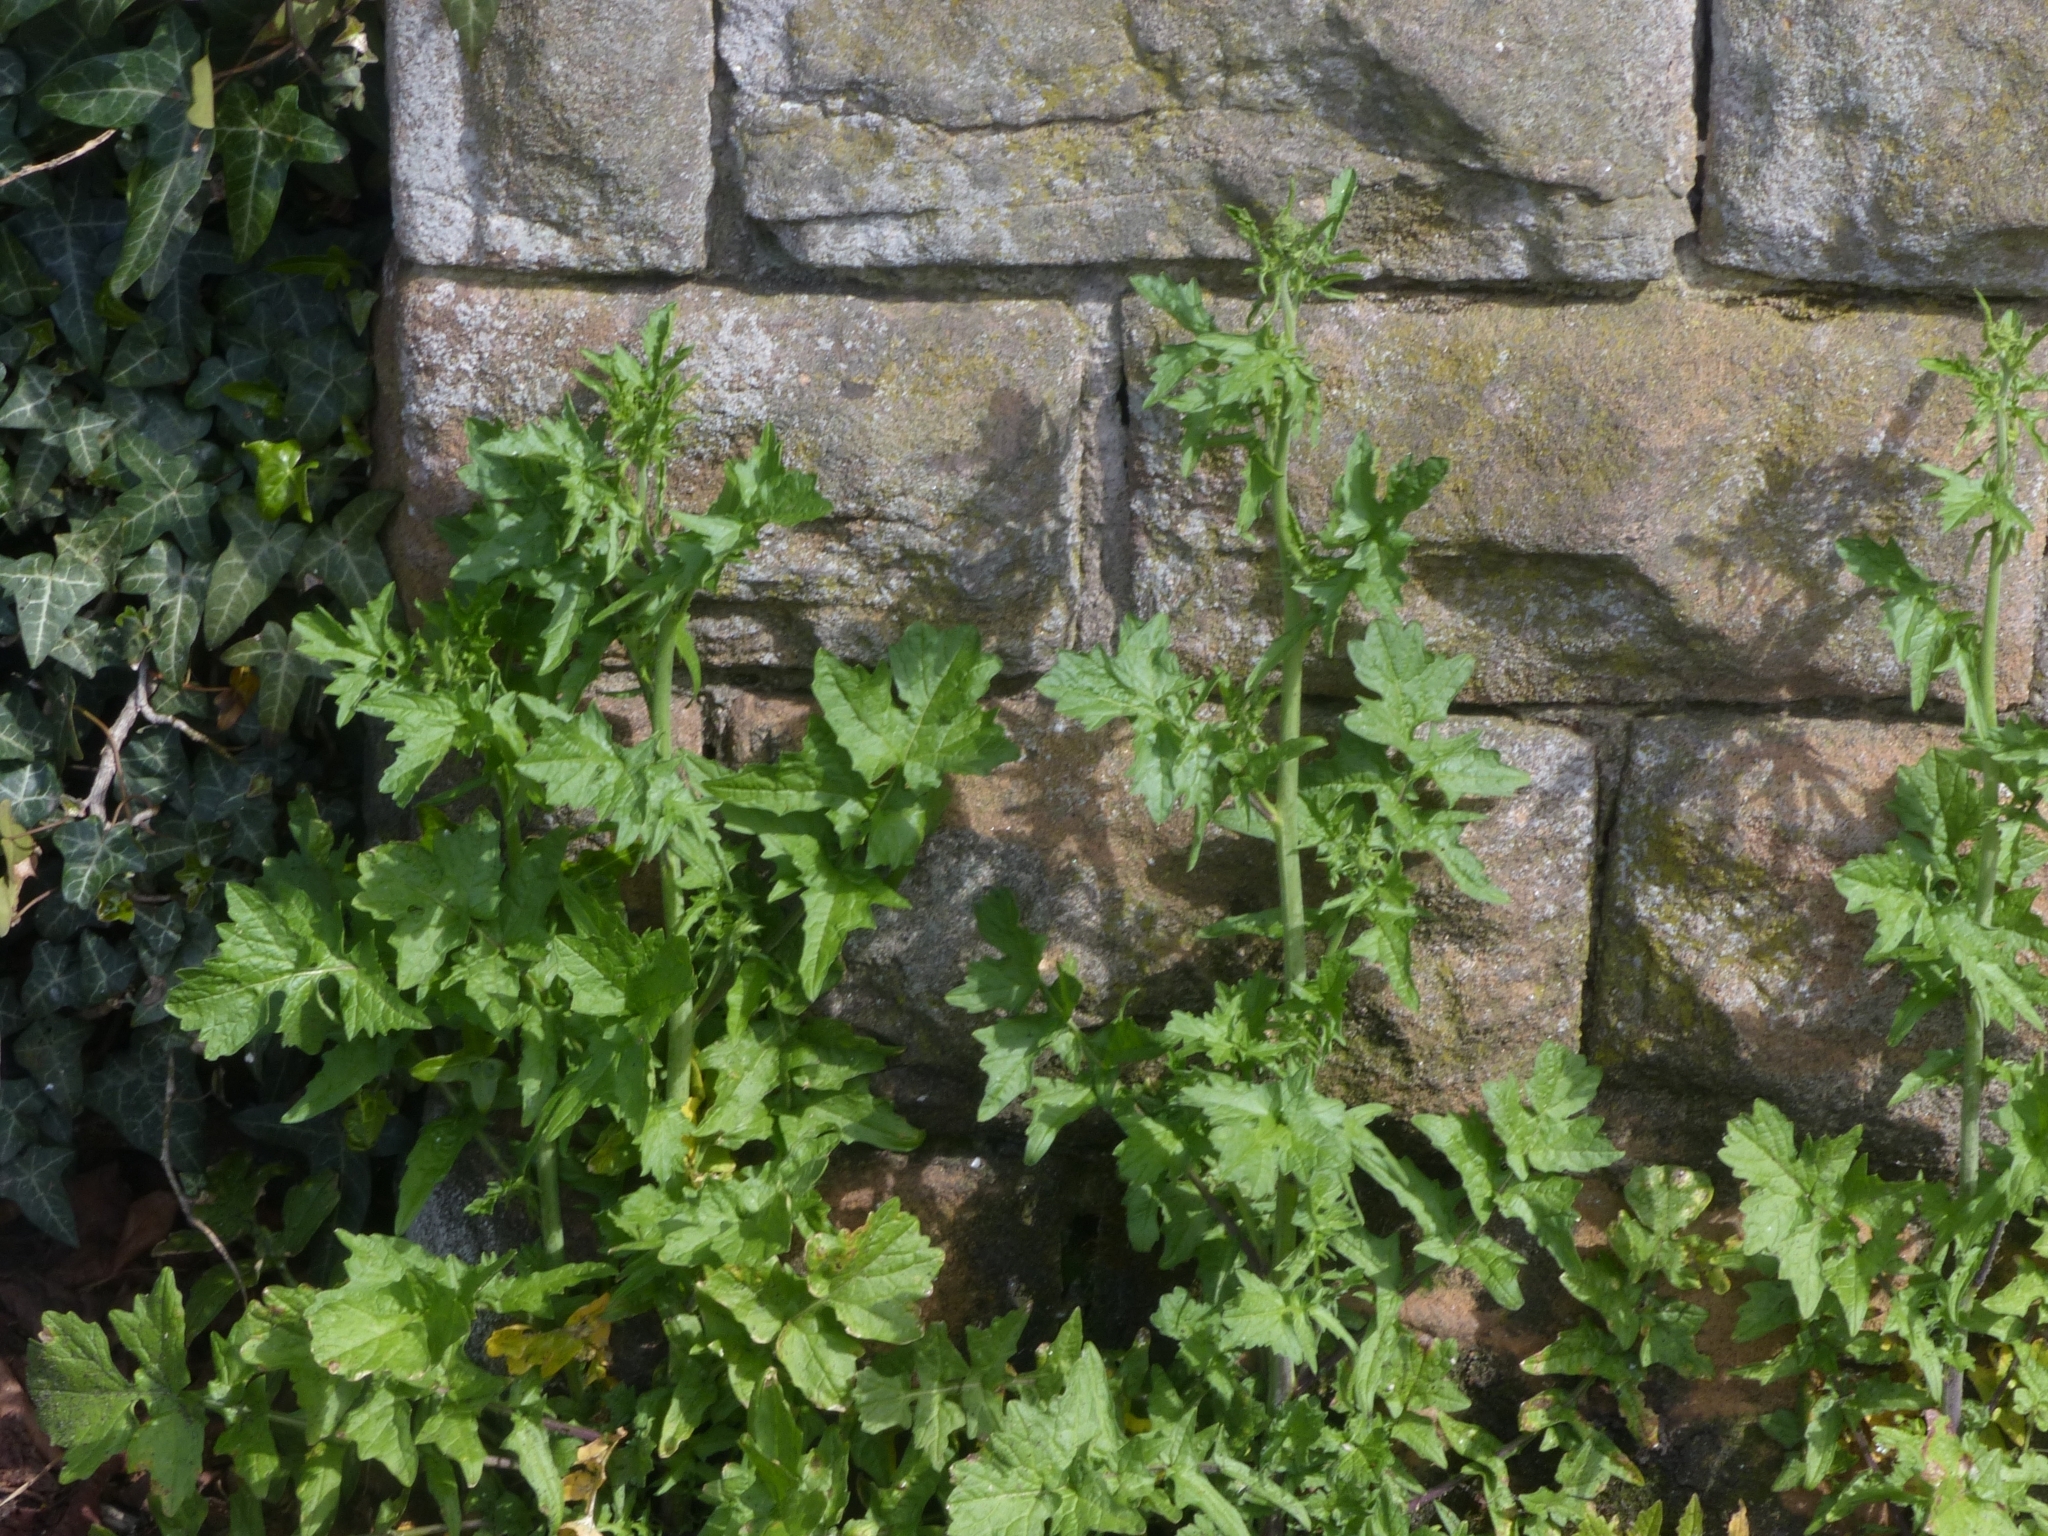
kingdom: Plantae
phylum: Tracheophyta
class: Magnoliopsida
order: Brassicales
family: Brassicaceae
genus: Sisymbrium
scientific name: Sisymbrium officinale
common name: Hedge mustard
